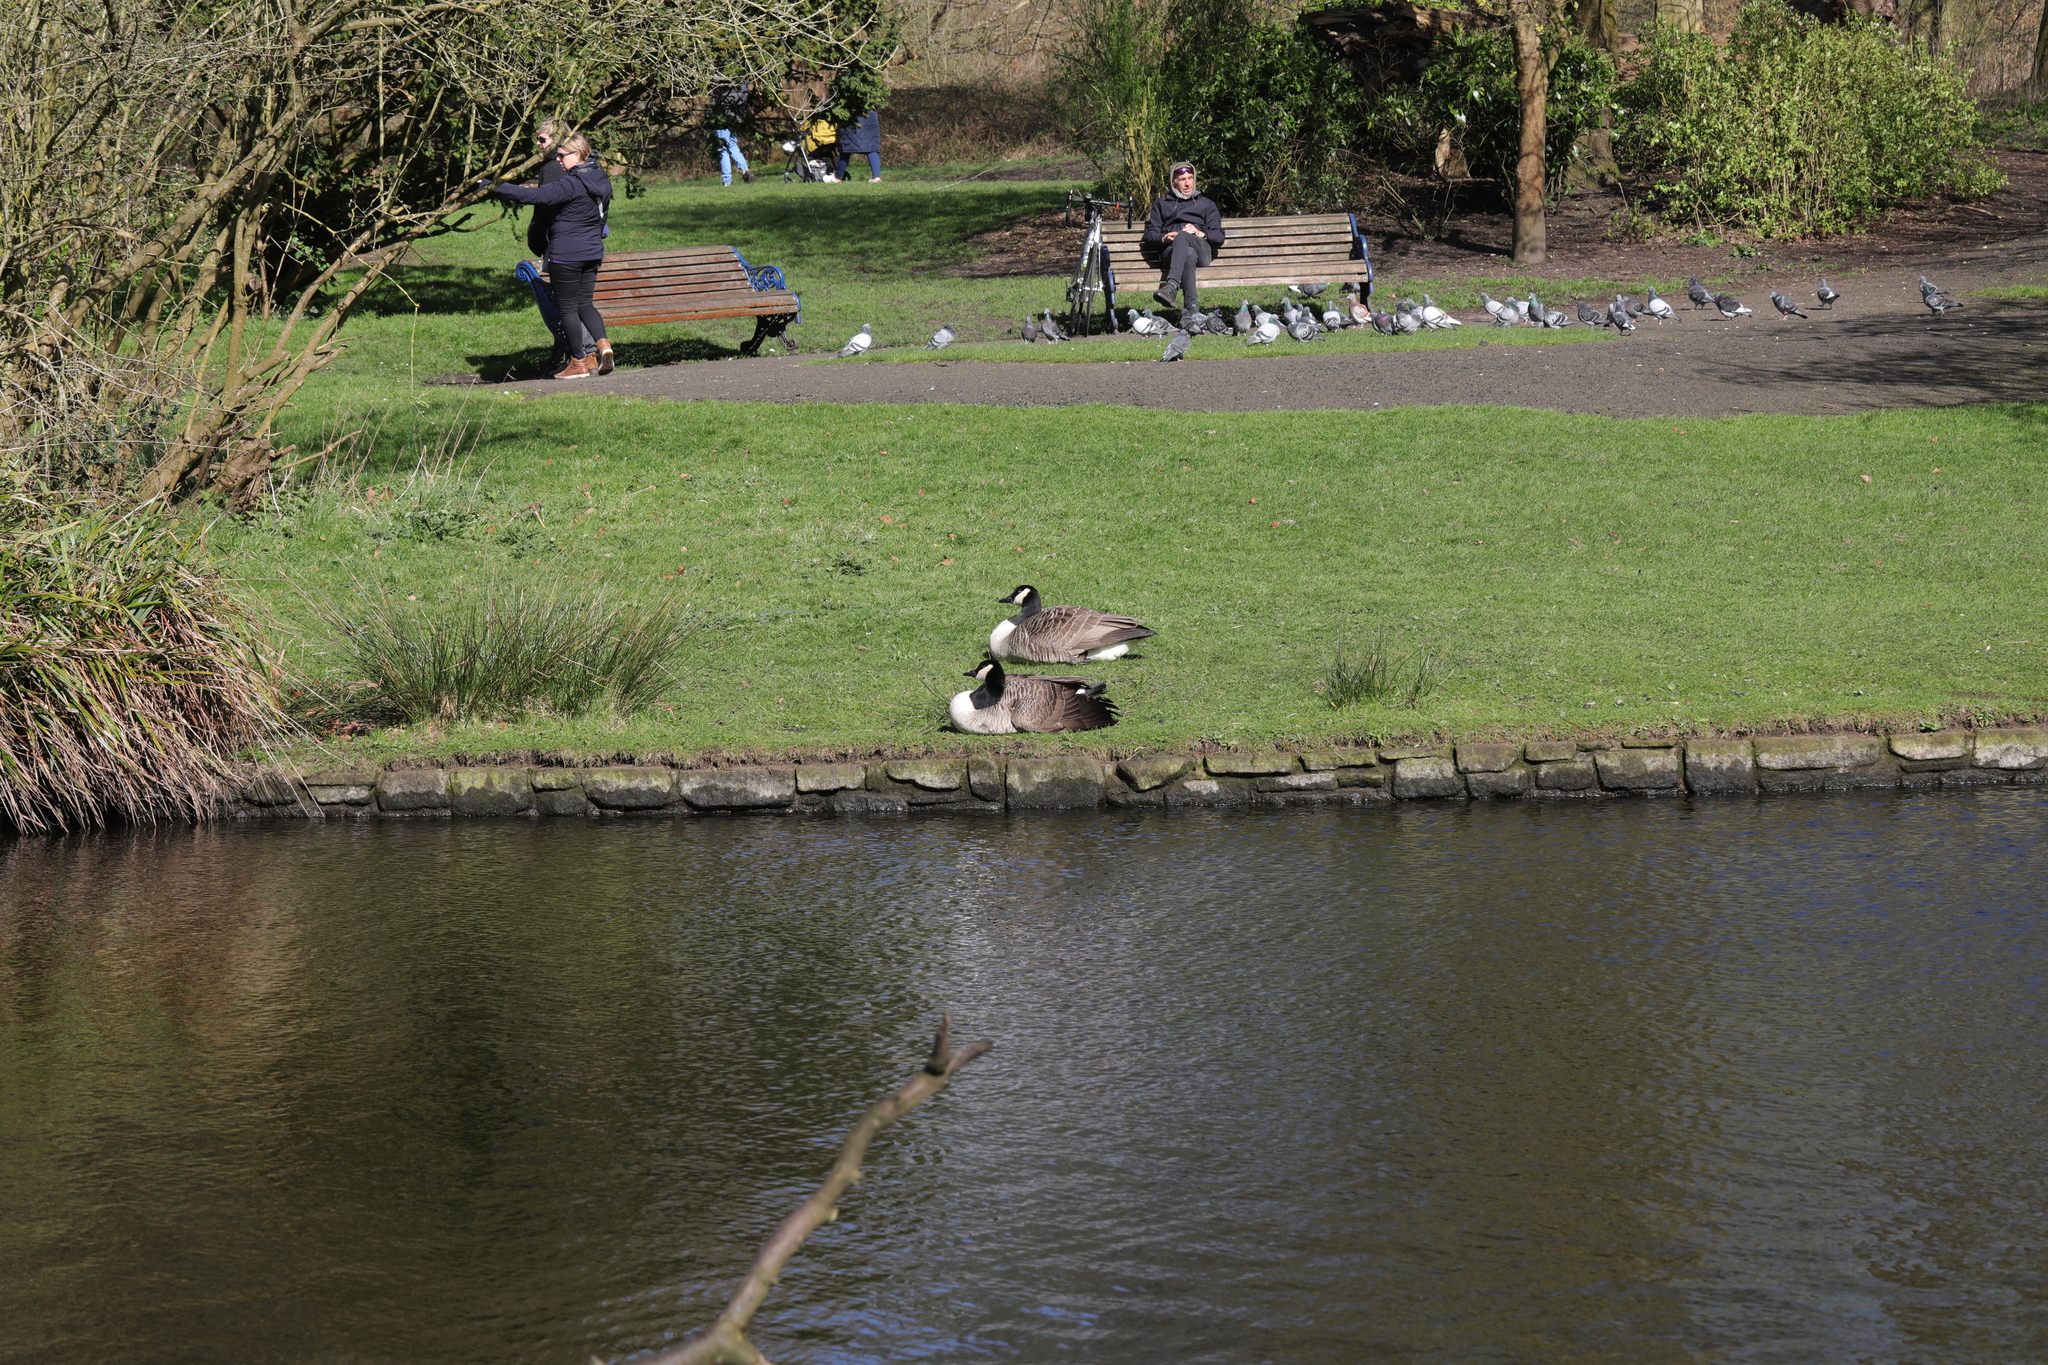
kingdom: Animalia
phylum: Chordata
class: Aves
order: Anseriformes
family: Anatidae
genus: Branta
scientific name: Branta canadensis
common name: Canada goose
